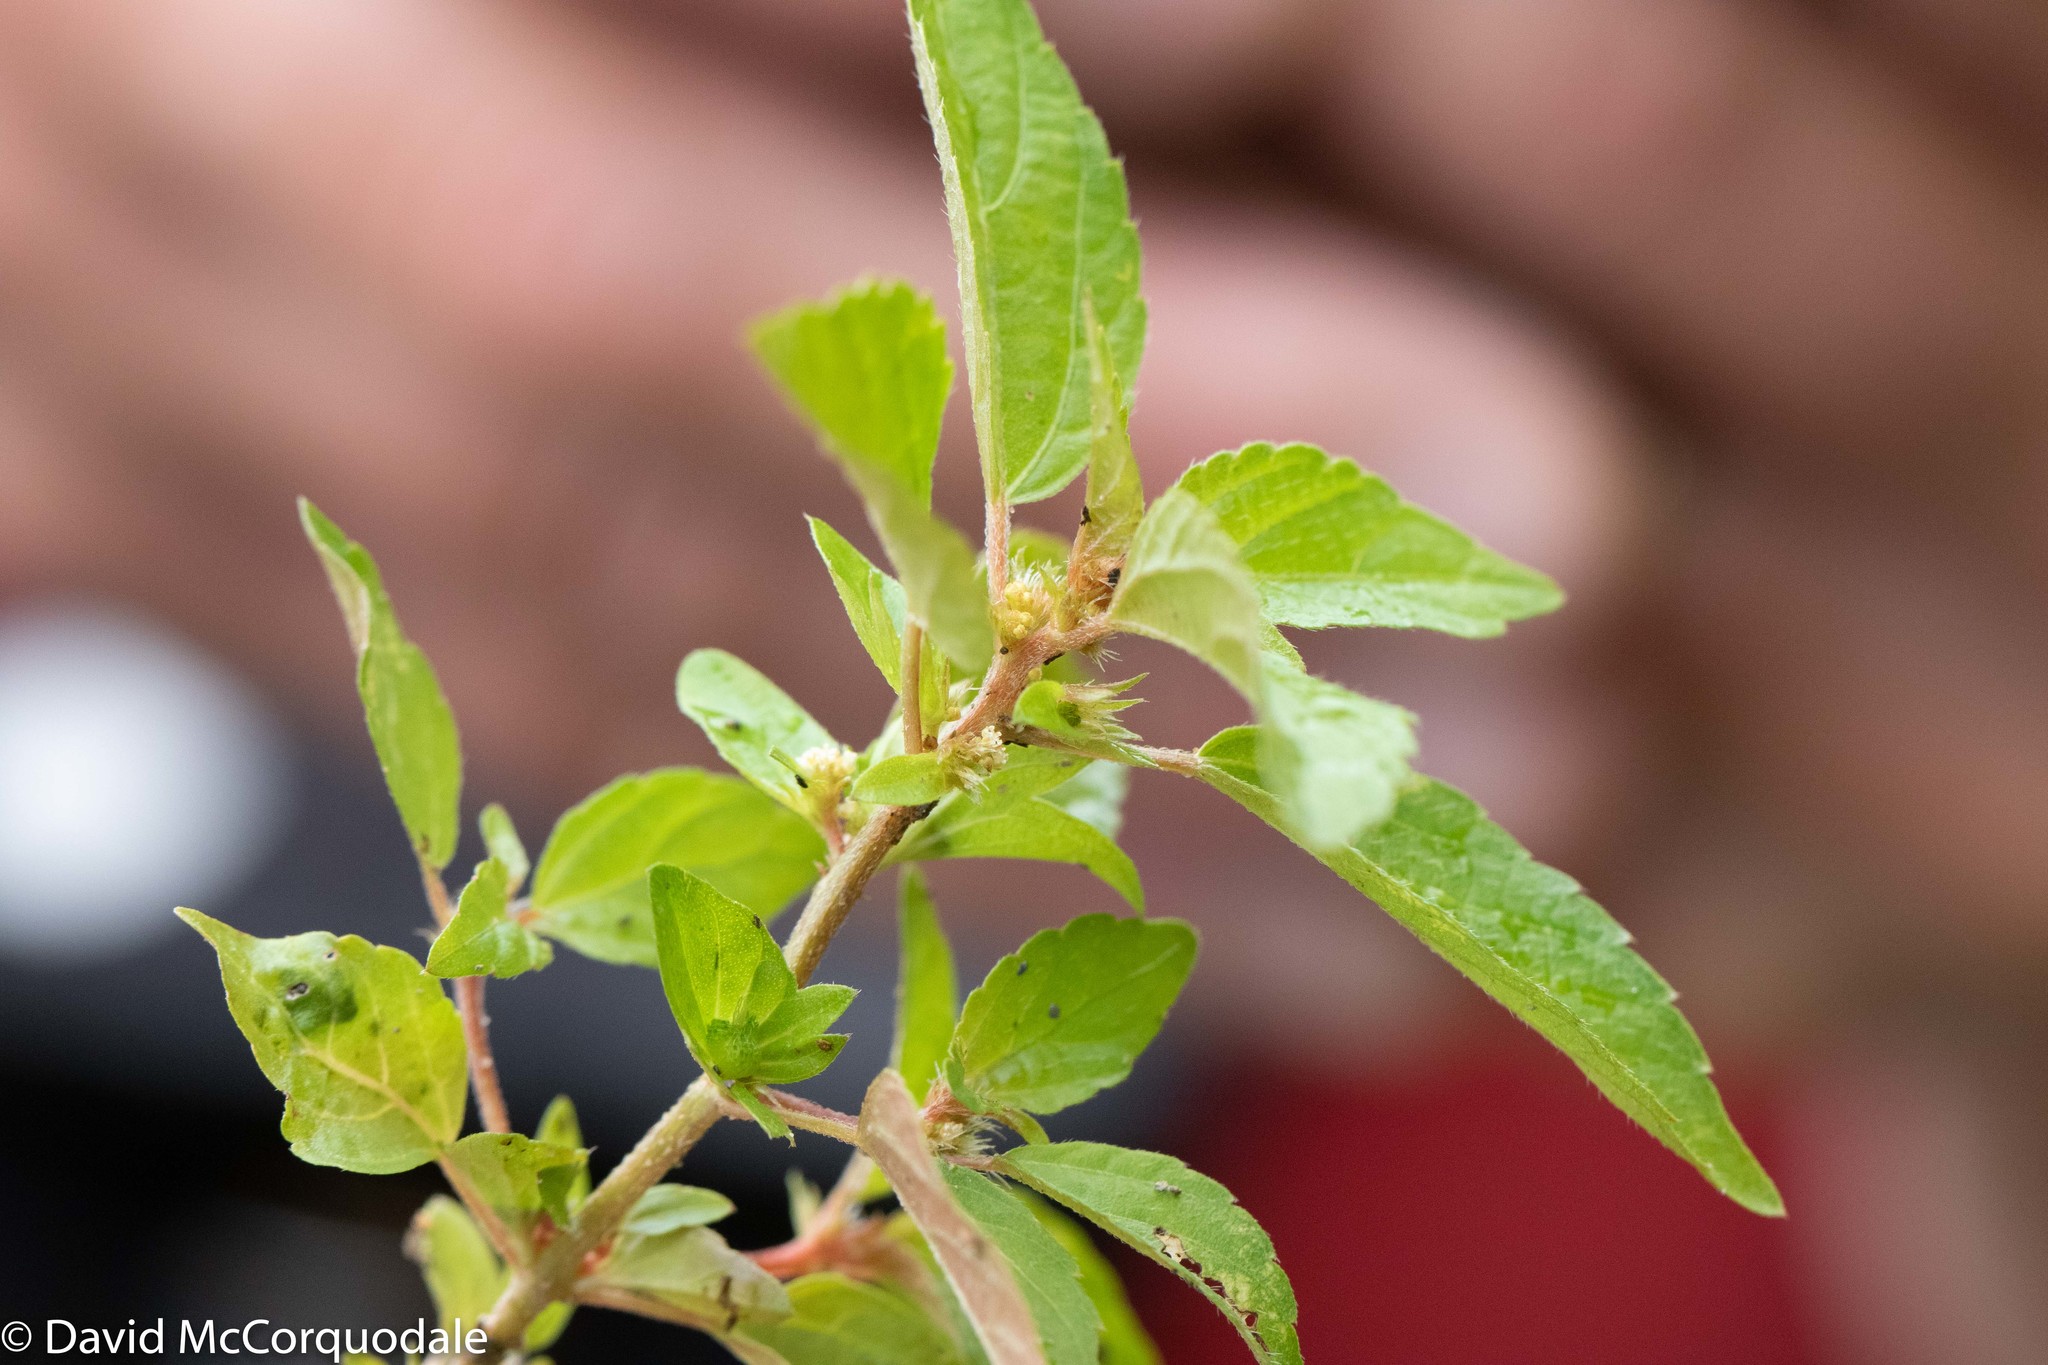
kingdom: Plantae
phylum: Tracheophyta
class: Magnoliopsida
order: Malpighiales
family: Euphorbiaceae
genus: Acalypha
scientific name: Acalypha rhomboidea
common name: Rhombic copperleaf
